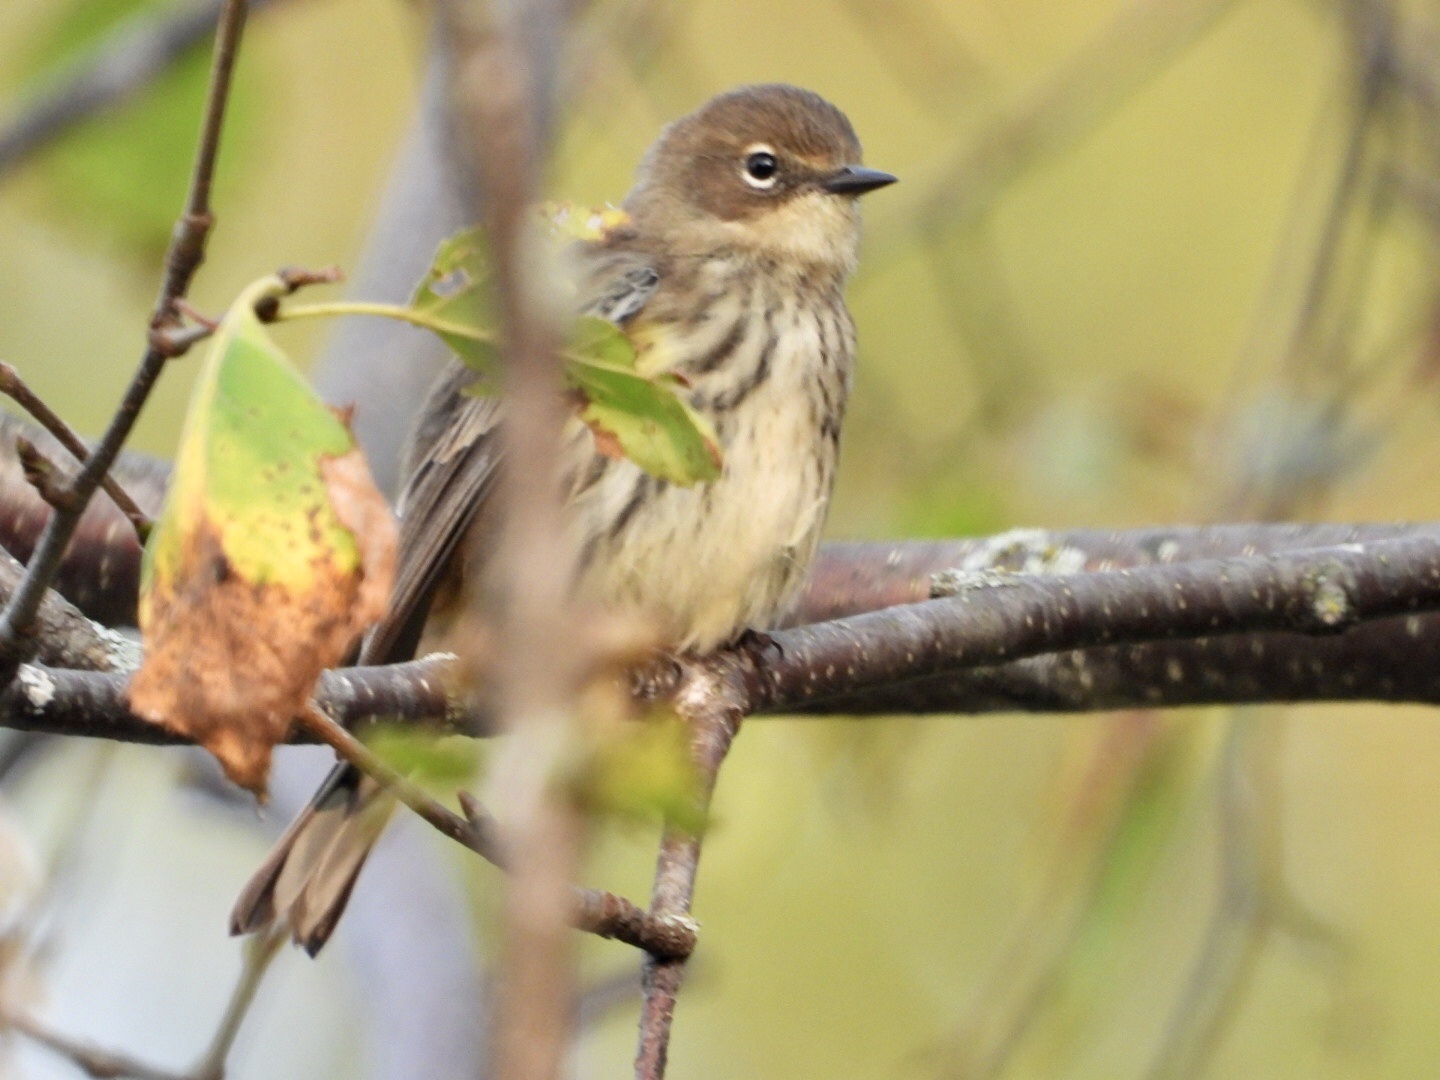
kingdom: Animalia
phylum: Chordata
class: Aves
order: Passeriformes
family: Parulidae
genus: Setophaga
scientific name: Setophaga coronata
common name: Myrtle warbler
